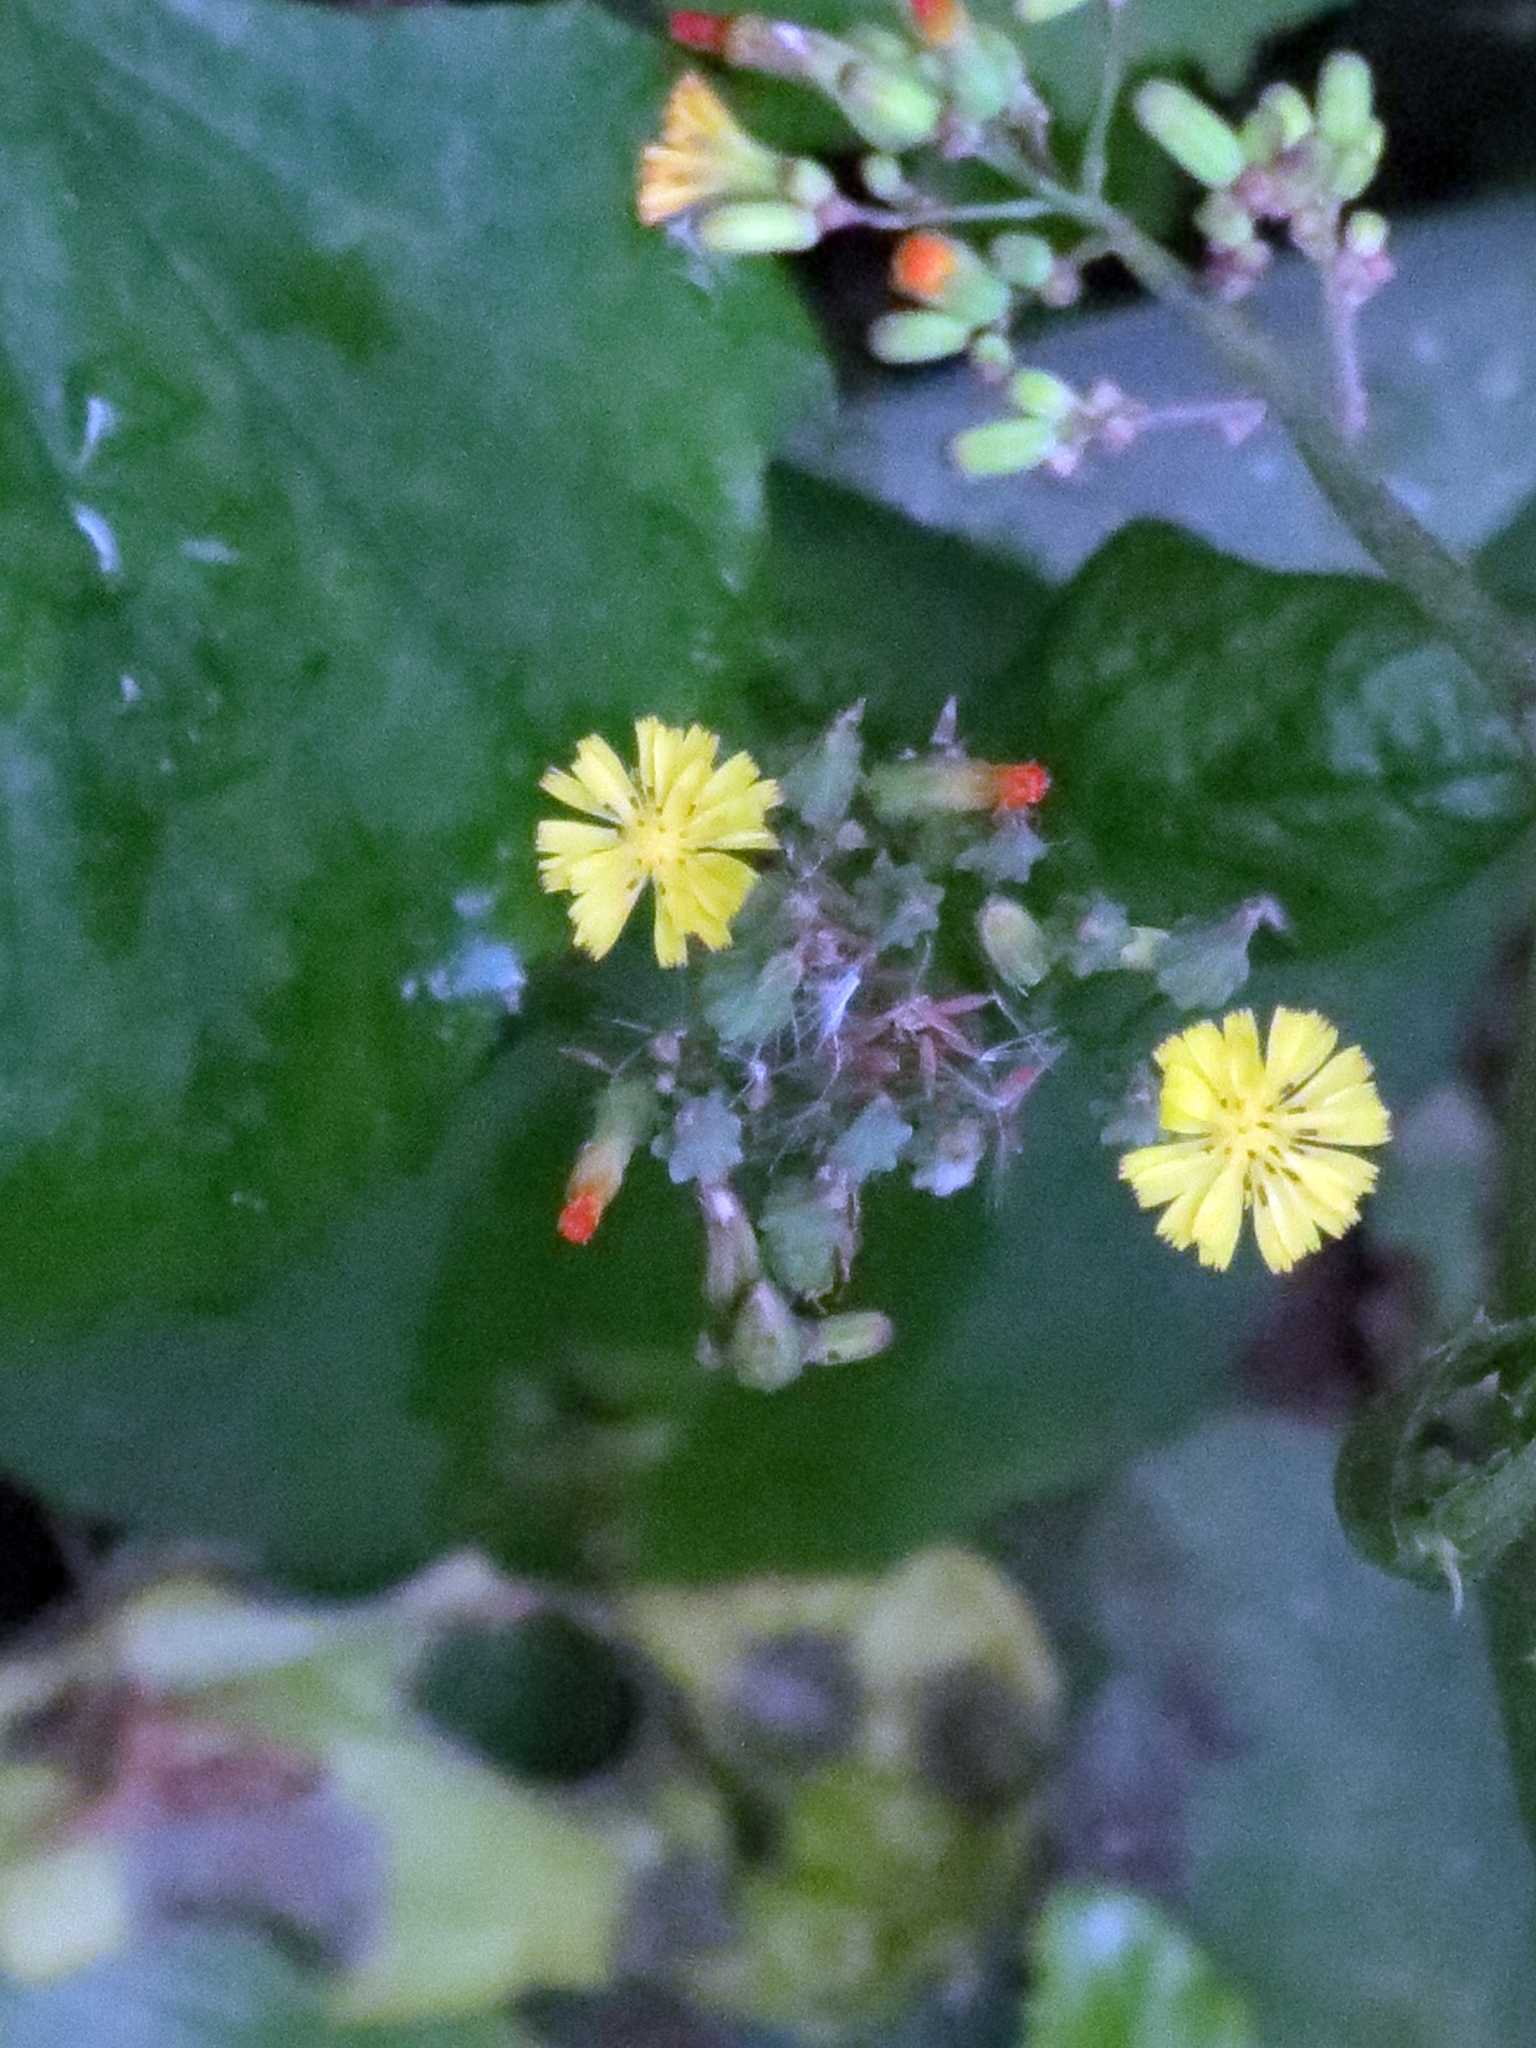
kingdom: Plantae
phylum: Tracheophyta
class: Magnoliopsida
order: Asterales
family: Asteraceae
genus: Youngia
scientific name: Youngia japonica
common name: Oriental false hawksbeard
